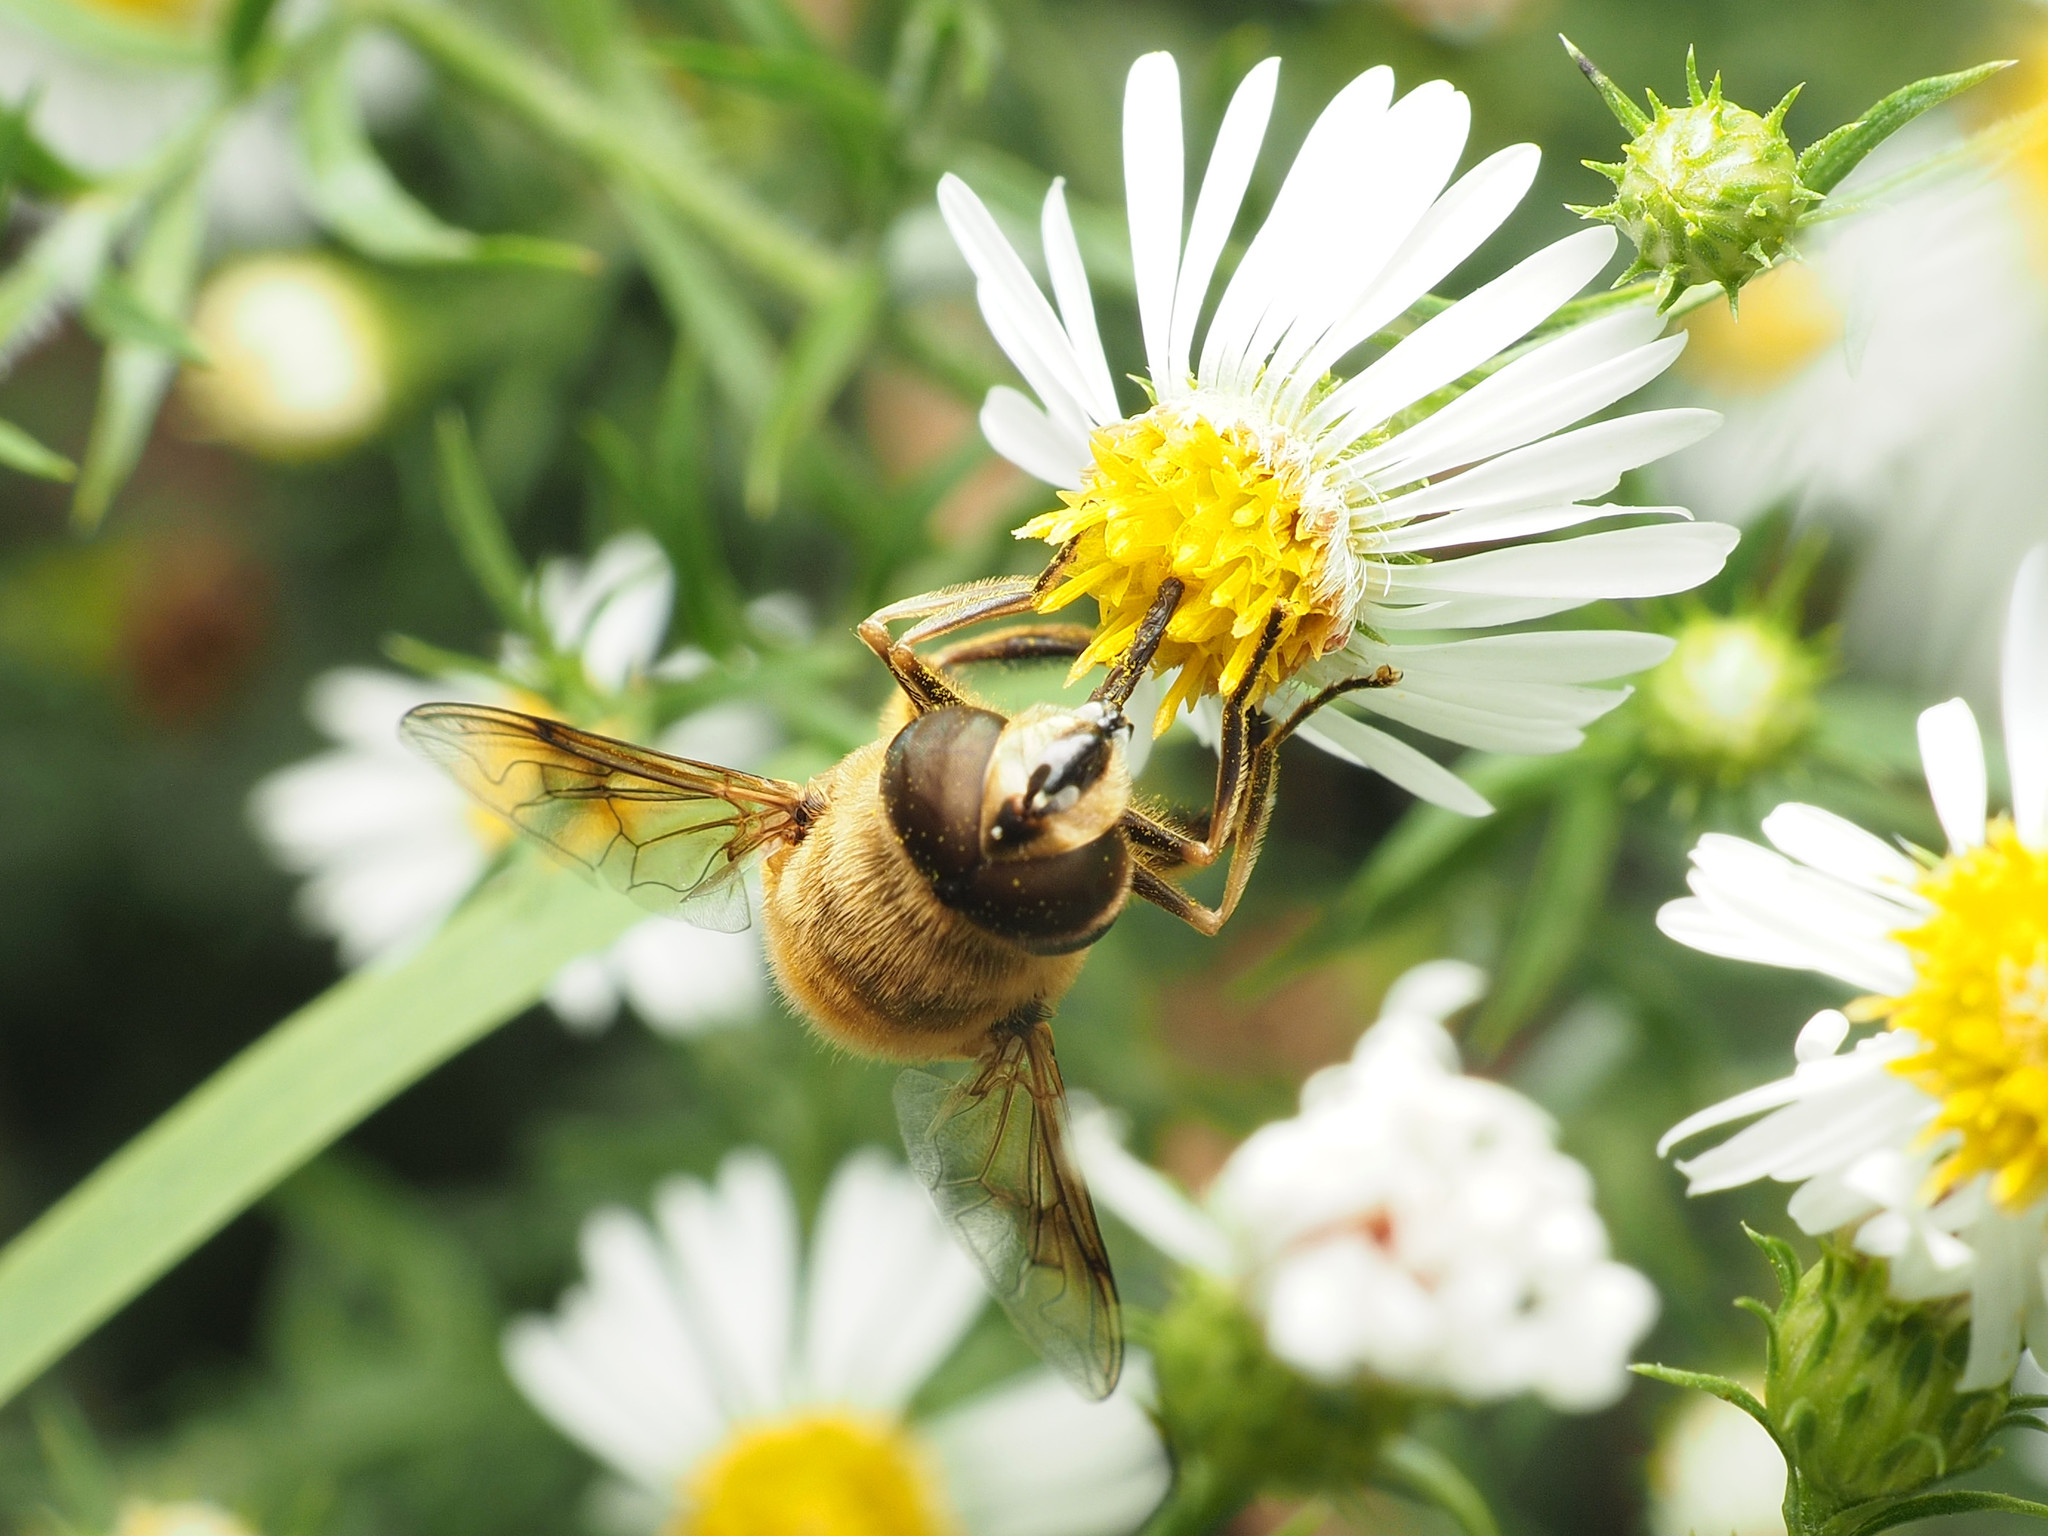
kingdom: Animalia
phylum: Arthropoda
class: Insecta
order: Diptera
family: Syrphidae
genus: Eristalis
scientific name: Eristalis tenax
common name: Drone fly
